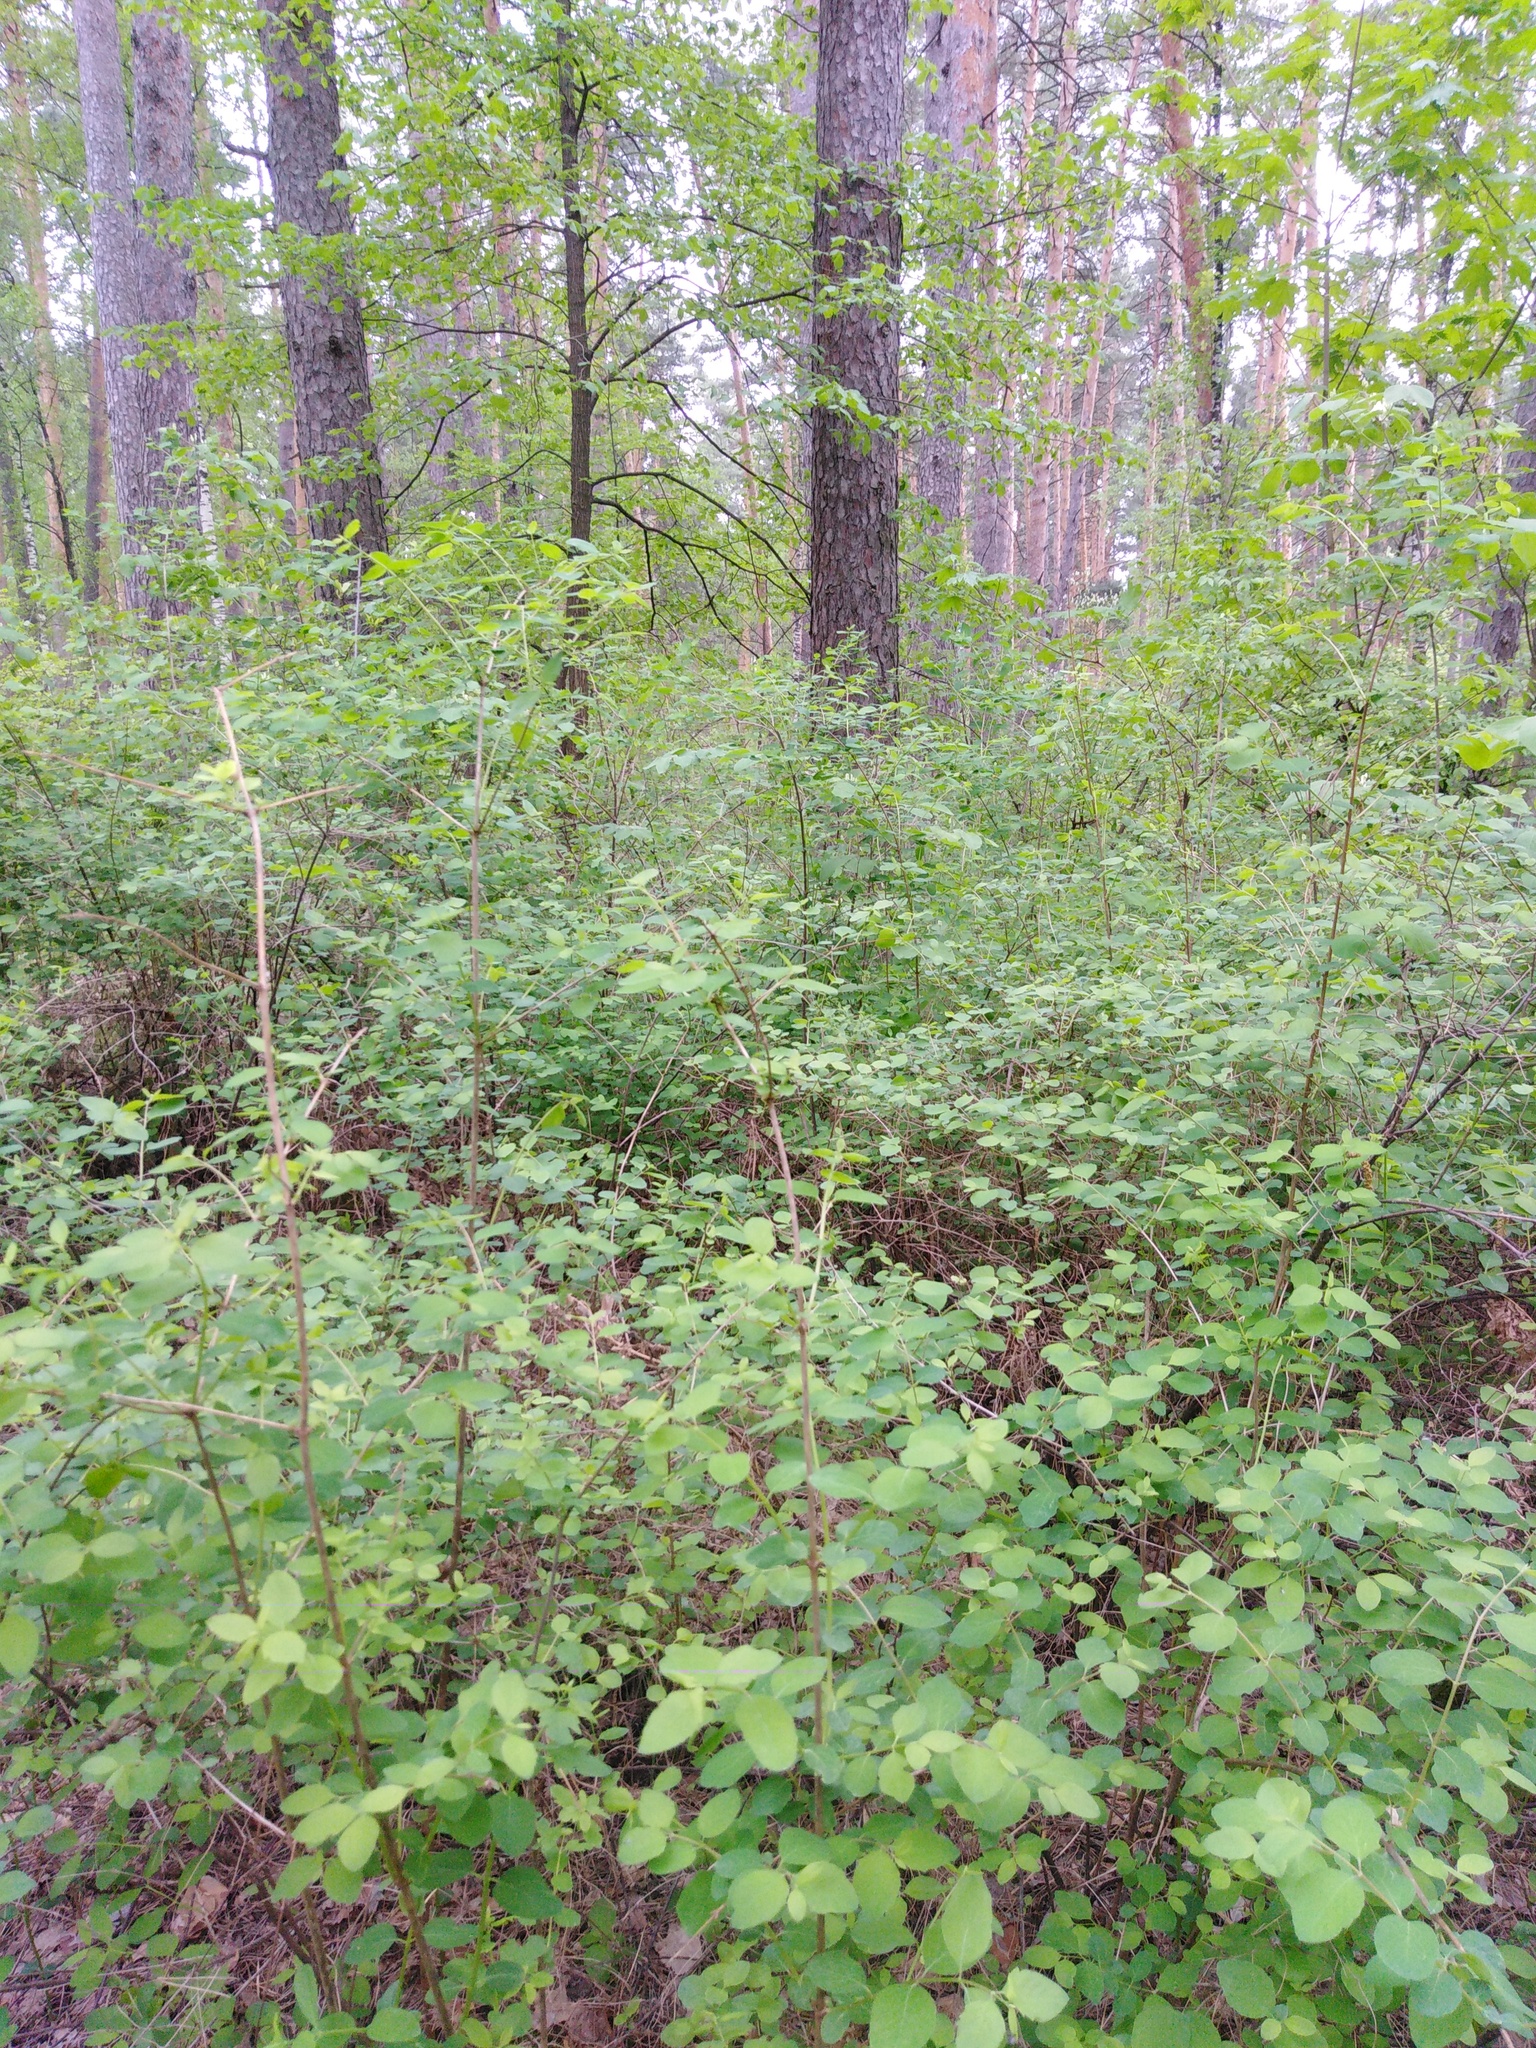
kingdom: Plantae
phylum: Tracheophyta
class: Magnoliopsida
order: Dipsacales
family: Caprifoliaceae
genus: Symphoricarpos
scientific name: Symphoricarpos albus
